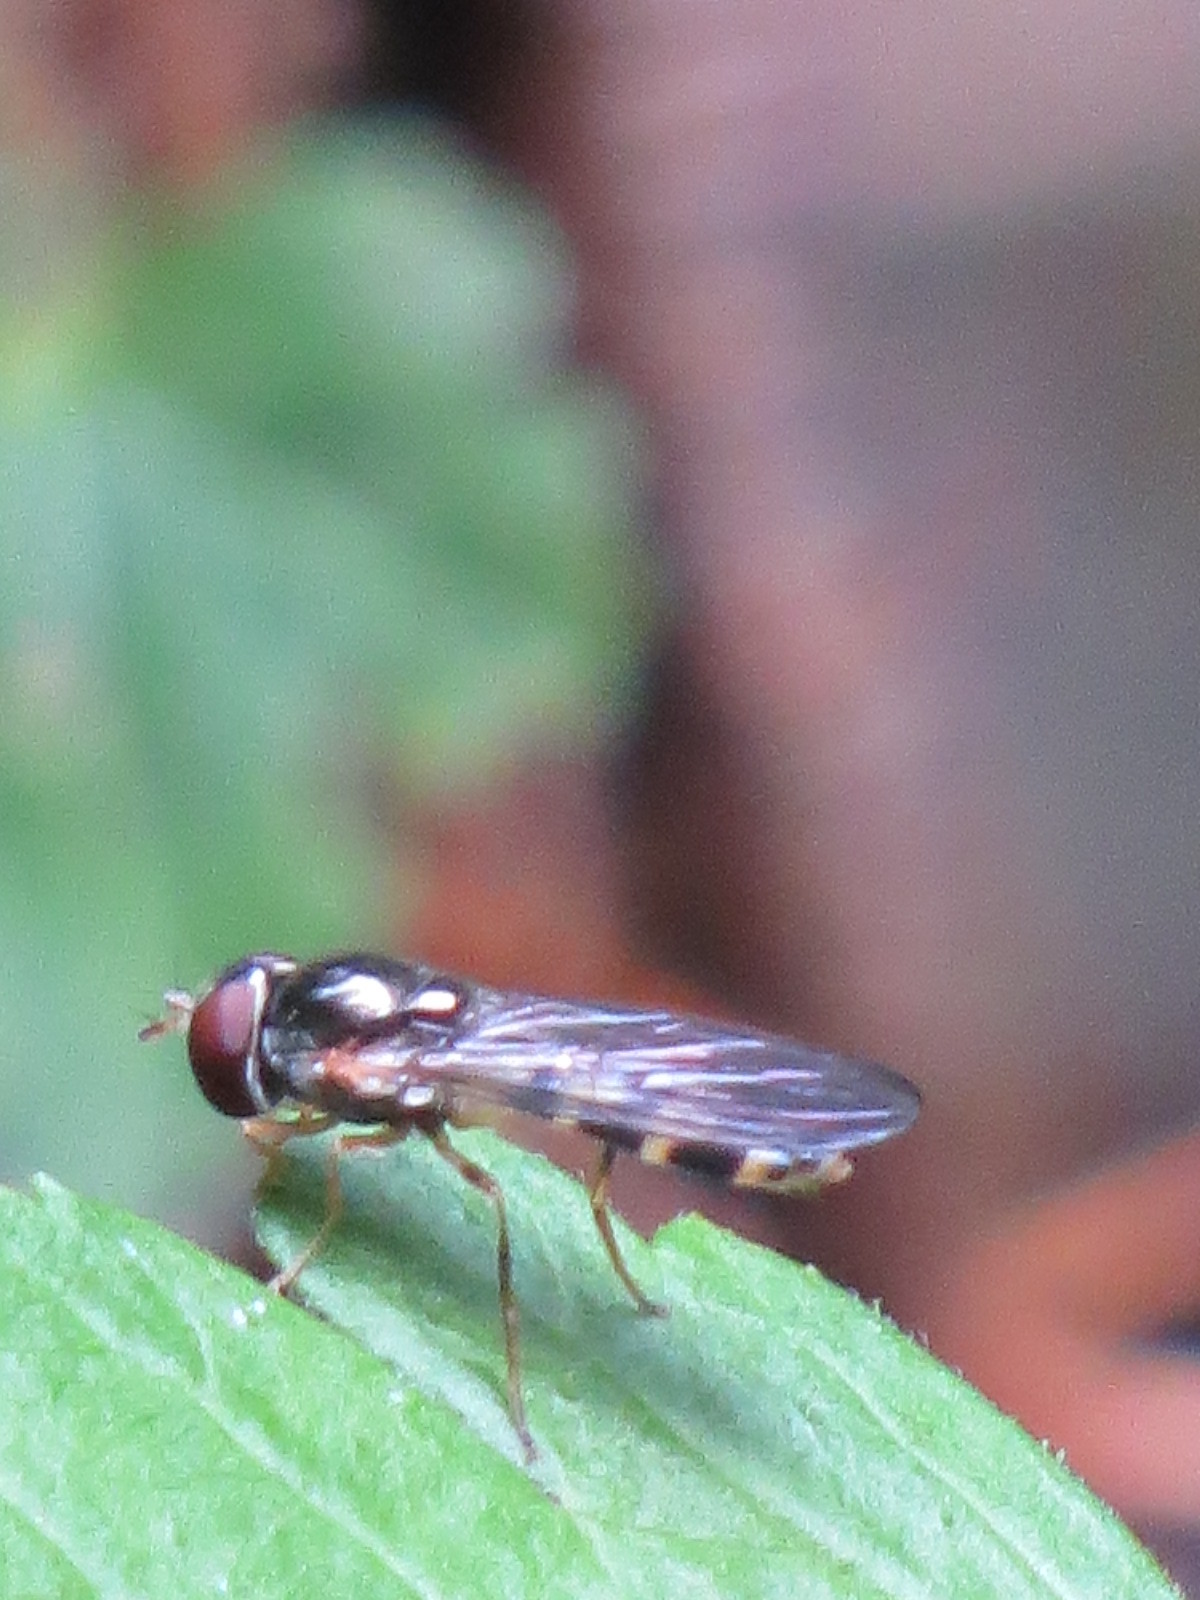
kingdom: Animalia
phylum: Arthropoda
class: Insecta
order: Diptera
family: Syrphidae
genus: Melanostoma
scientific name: Melanostoma mellina
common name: Hover fly
